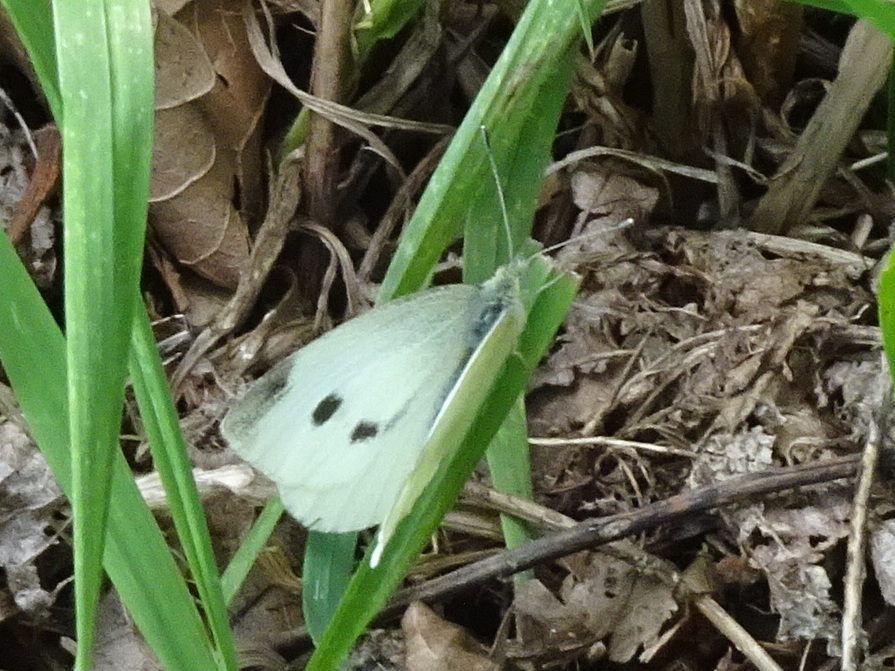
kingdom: Animalia
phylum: Arthropoda
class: Insecta
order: Lepidoptera
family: Pieridae
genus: Pieris
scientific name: Pieris rapae
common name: Small white
